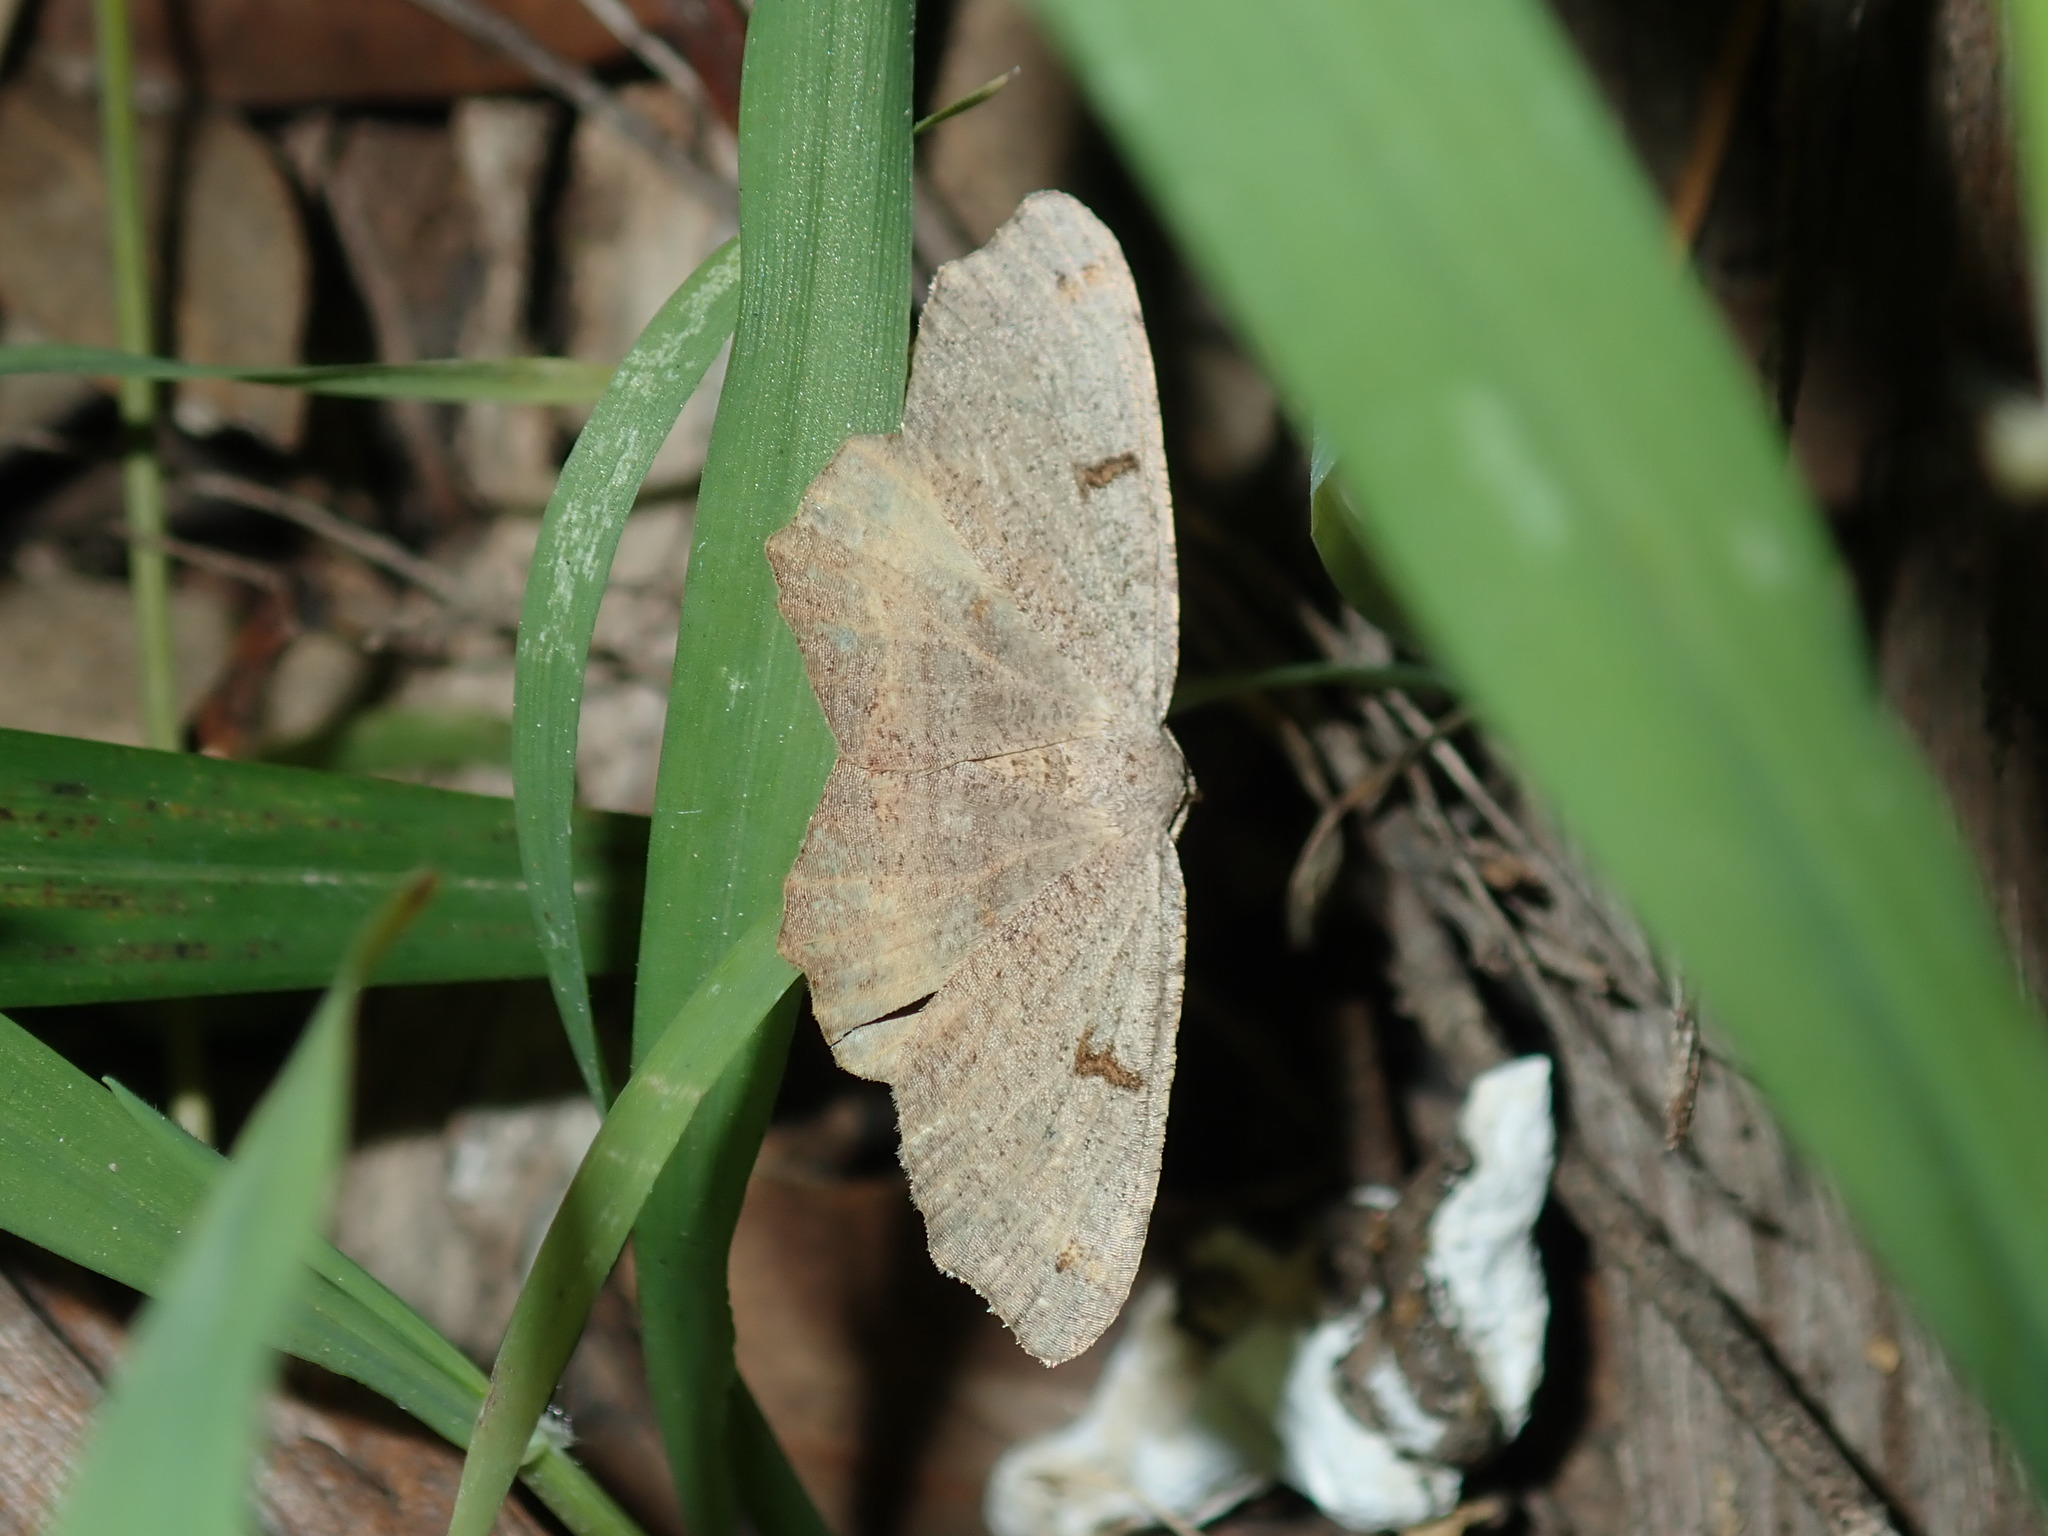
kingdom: Animalia
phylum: Arthropoda
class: Insecta
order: Lepidoptera
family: Geometridae
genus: Dissomorphia
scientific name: Dissomorphia australiaria
